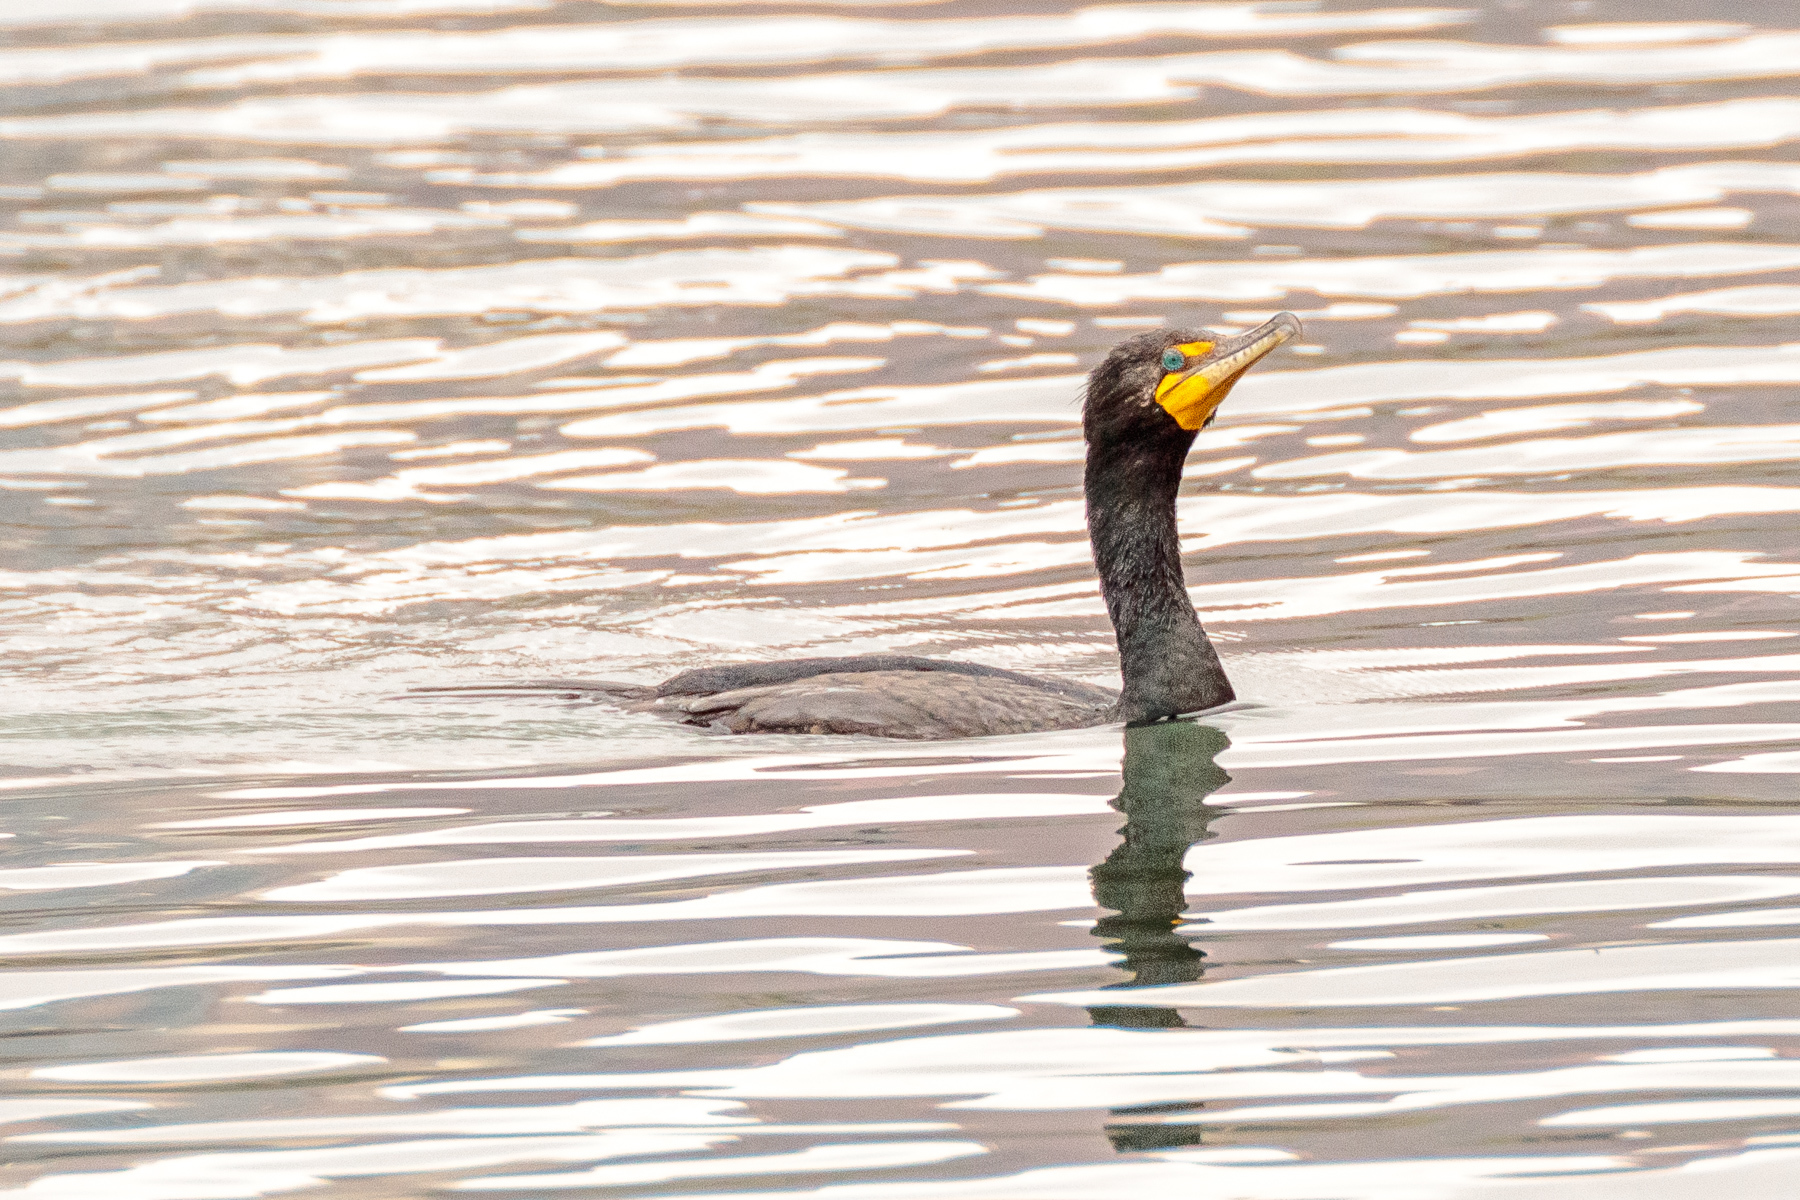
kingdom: Animalia
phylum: Chordata
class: Aves
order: Suliformes
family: Phalacrocoracidae
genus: Phalacrocorax
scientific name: Phalacrocorax auritus
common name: Double-crested cormorant
